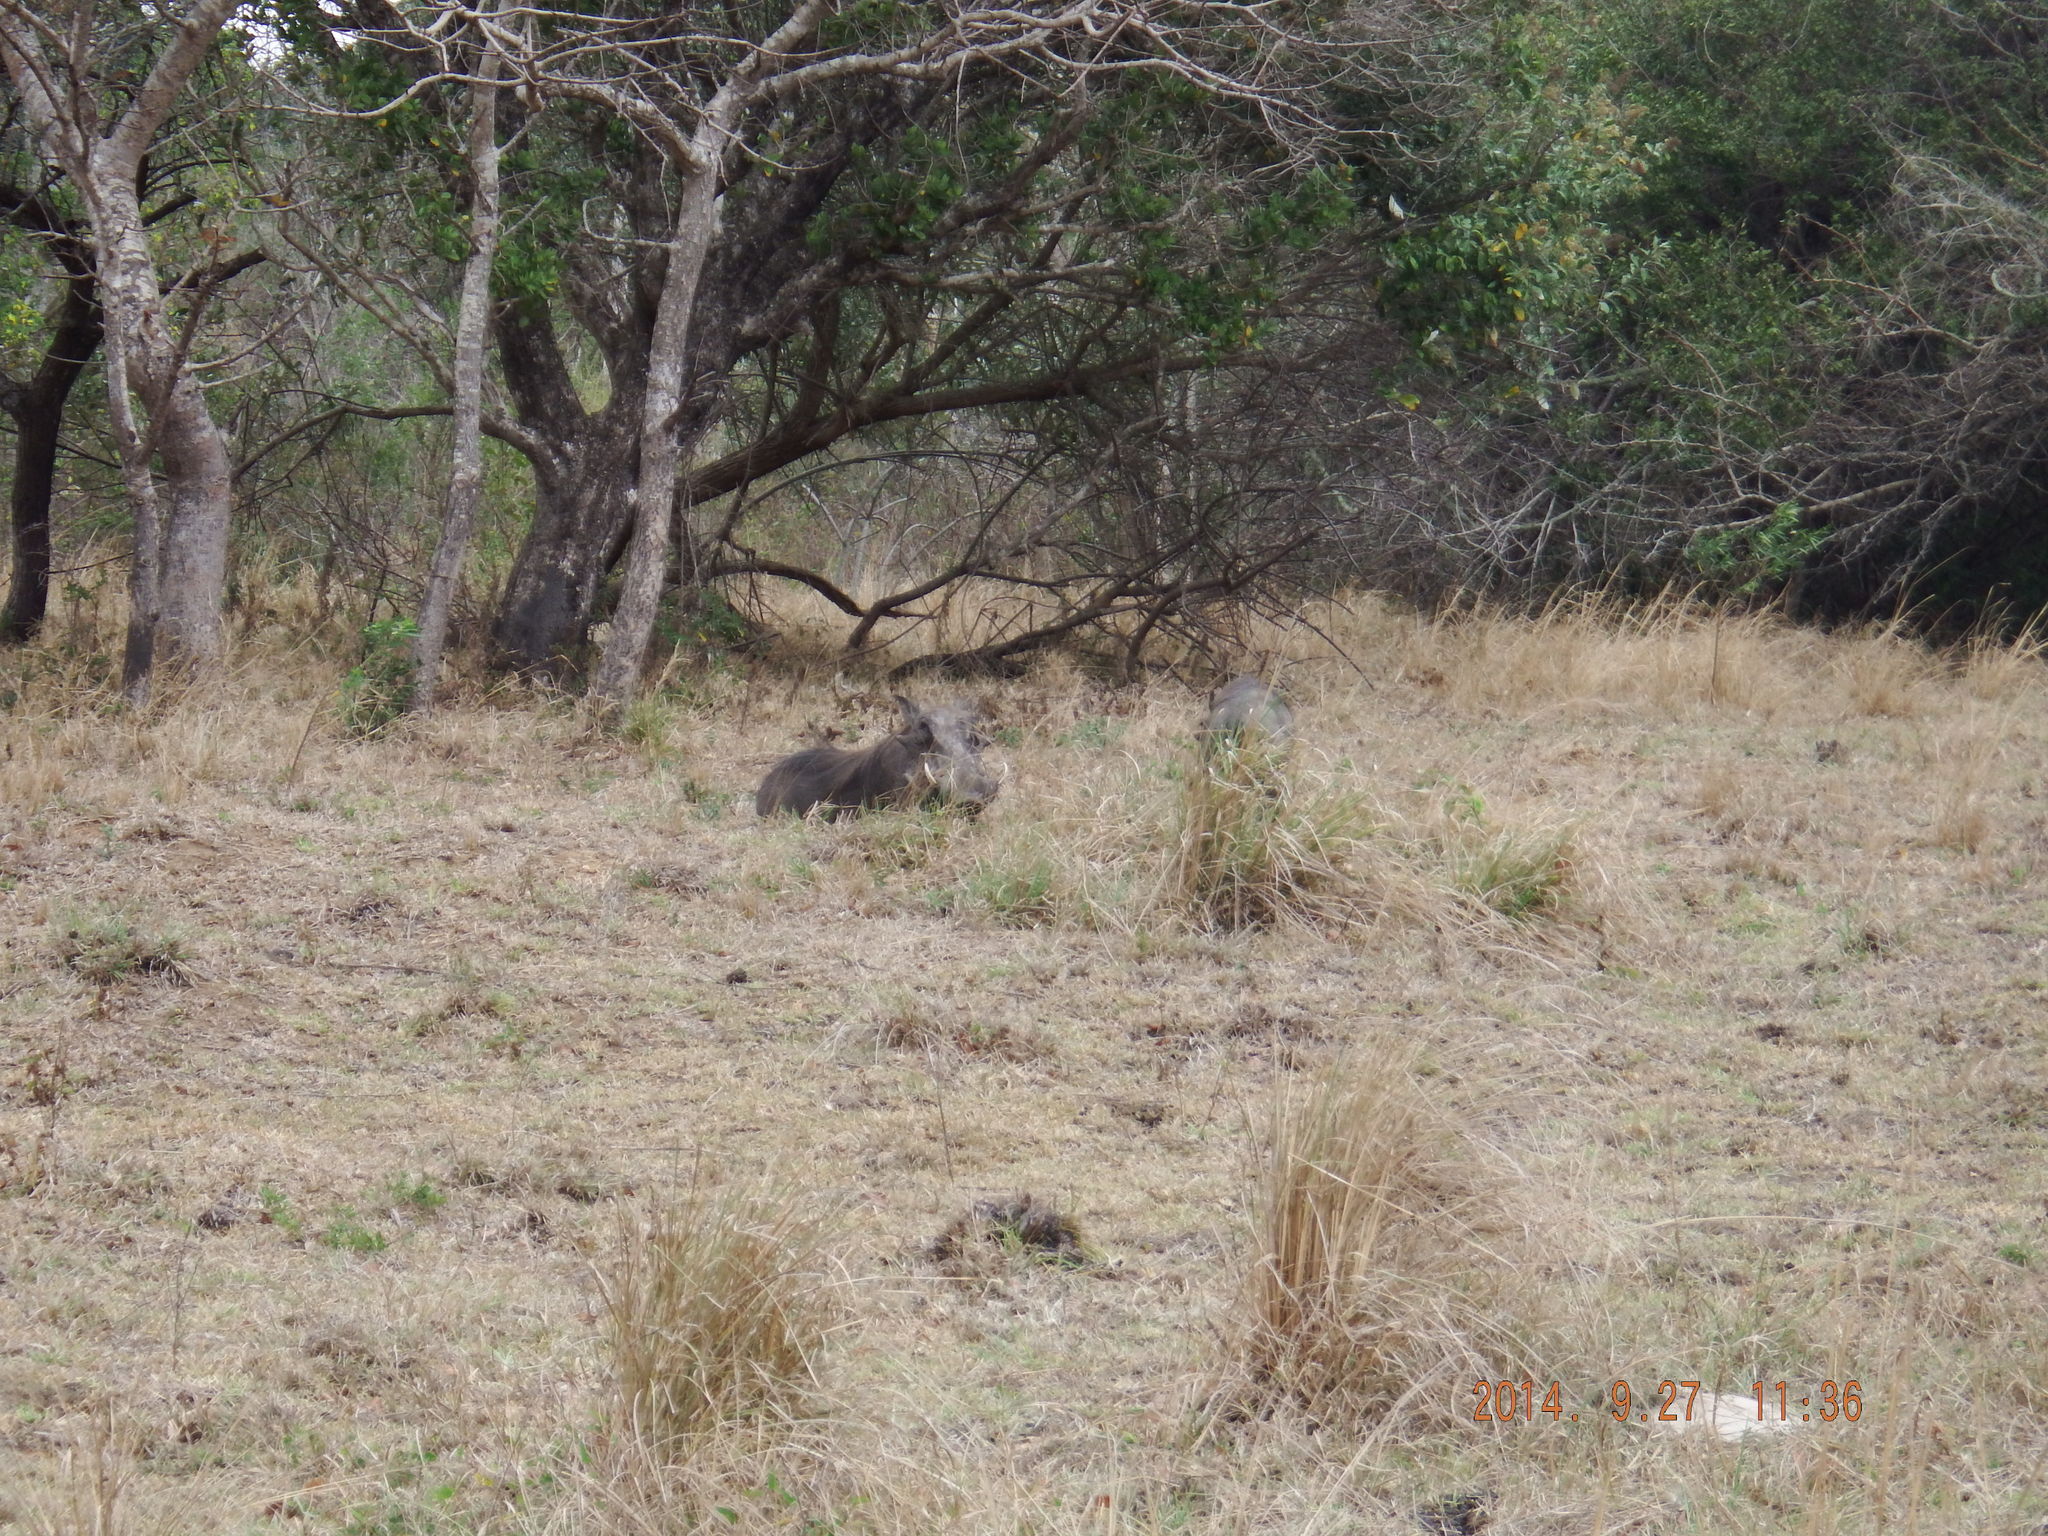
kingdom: Animalia
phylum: Chordata
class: Mammalia
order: Artiodactyla
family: Suidae
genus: Phacochoerus
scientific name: Phacochoerus africanus
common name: Common warthog
